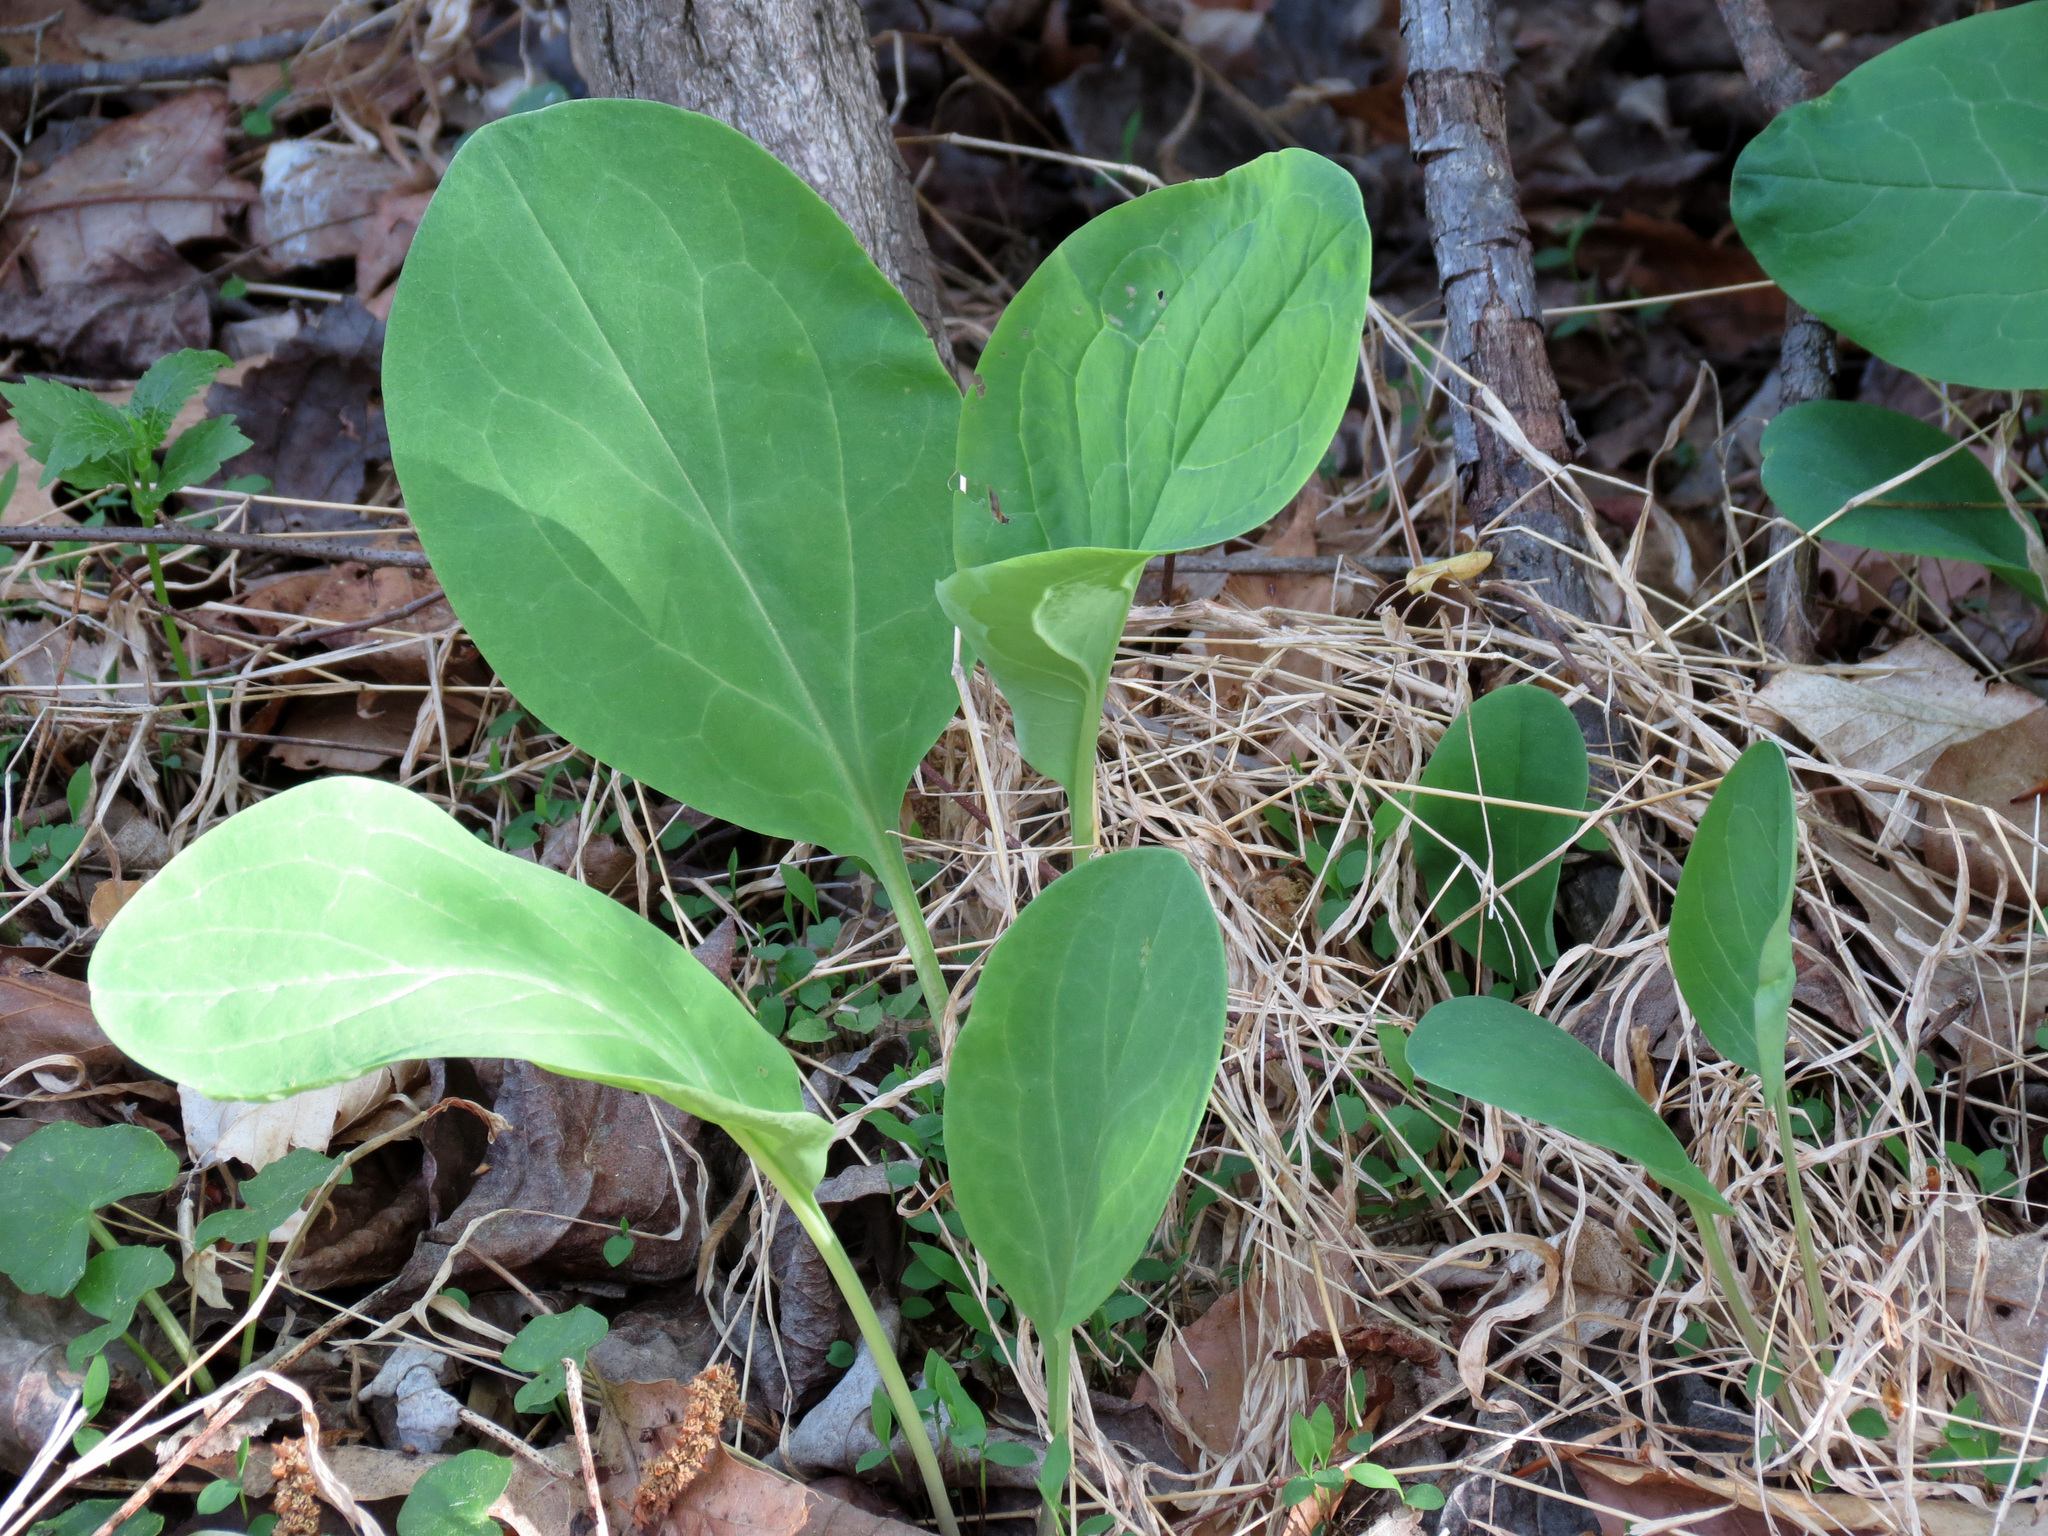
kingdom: Plantae
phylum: Tracheophyta
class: Magnoliopsida
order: Boraginales
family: Boraginaceae
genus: Mertensia
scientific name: Mertensia virginica
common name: Virginia bluebells
